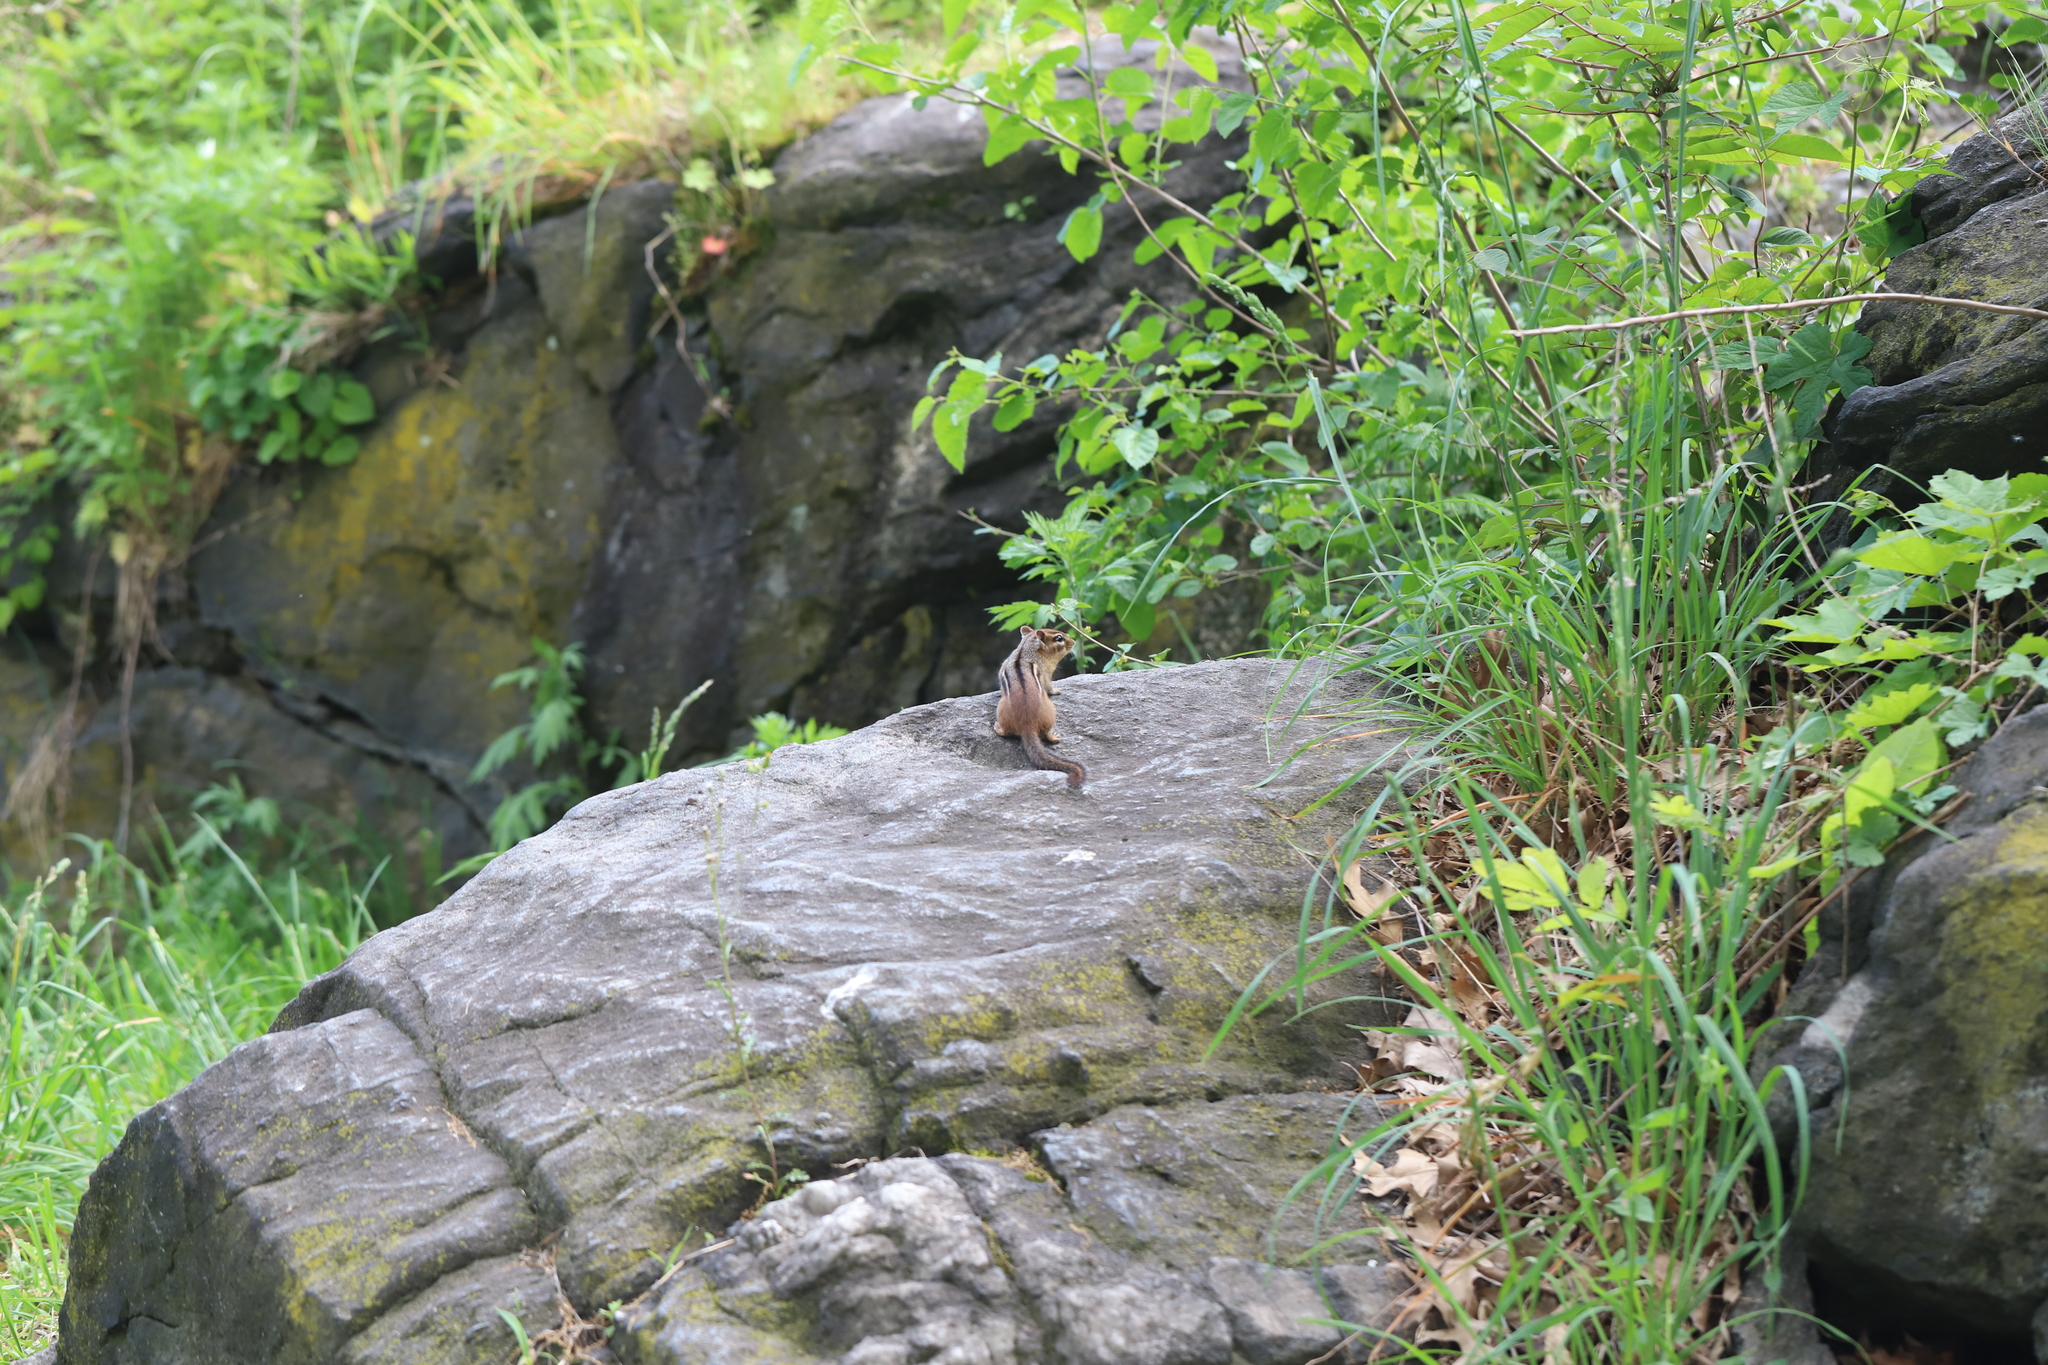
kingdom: Animalia
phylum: Chordata
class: Mammalia
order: Rodentia
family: Sciuridae
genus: Tamias
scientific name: Tamias striatus
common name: Eastern chipmunk
